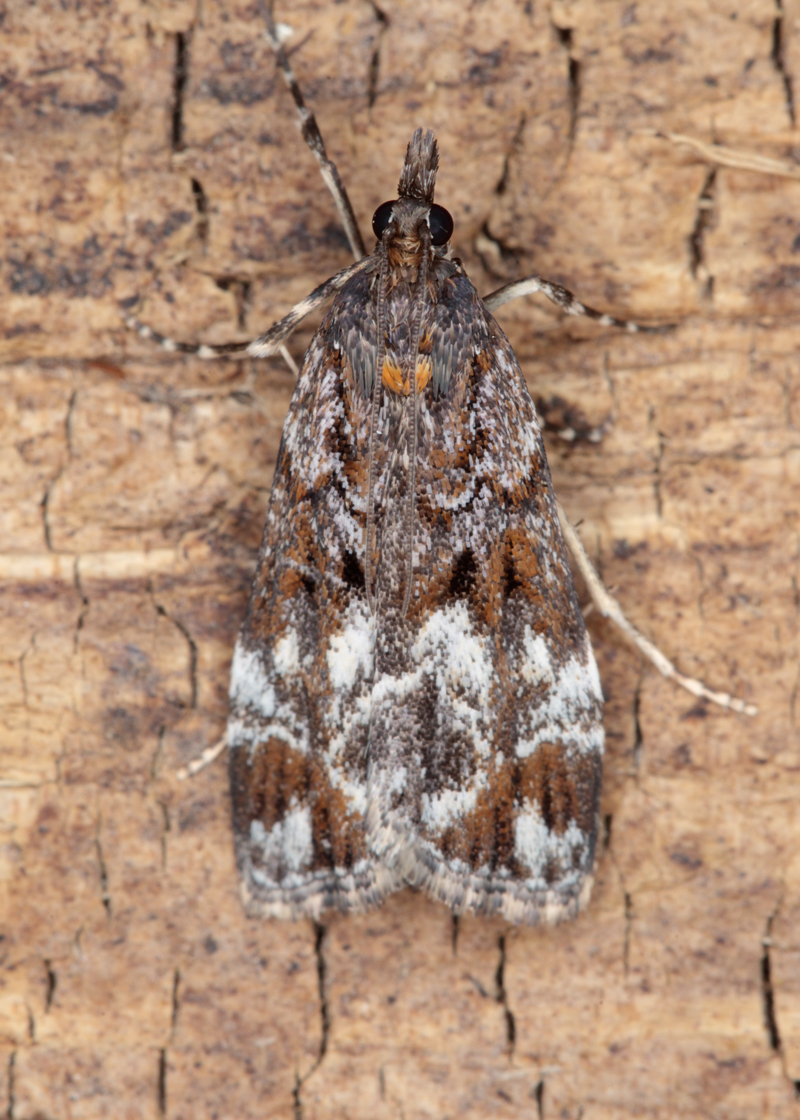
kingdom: Animalia
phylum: Arthropoda
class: Insecta
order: Lepidoptera
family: Crambidae
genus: Scoparia
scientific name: Scoparia minusculalis
